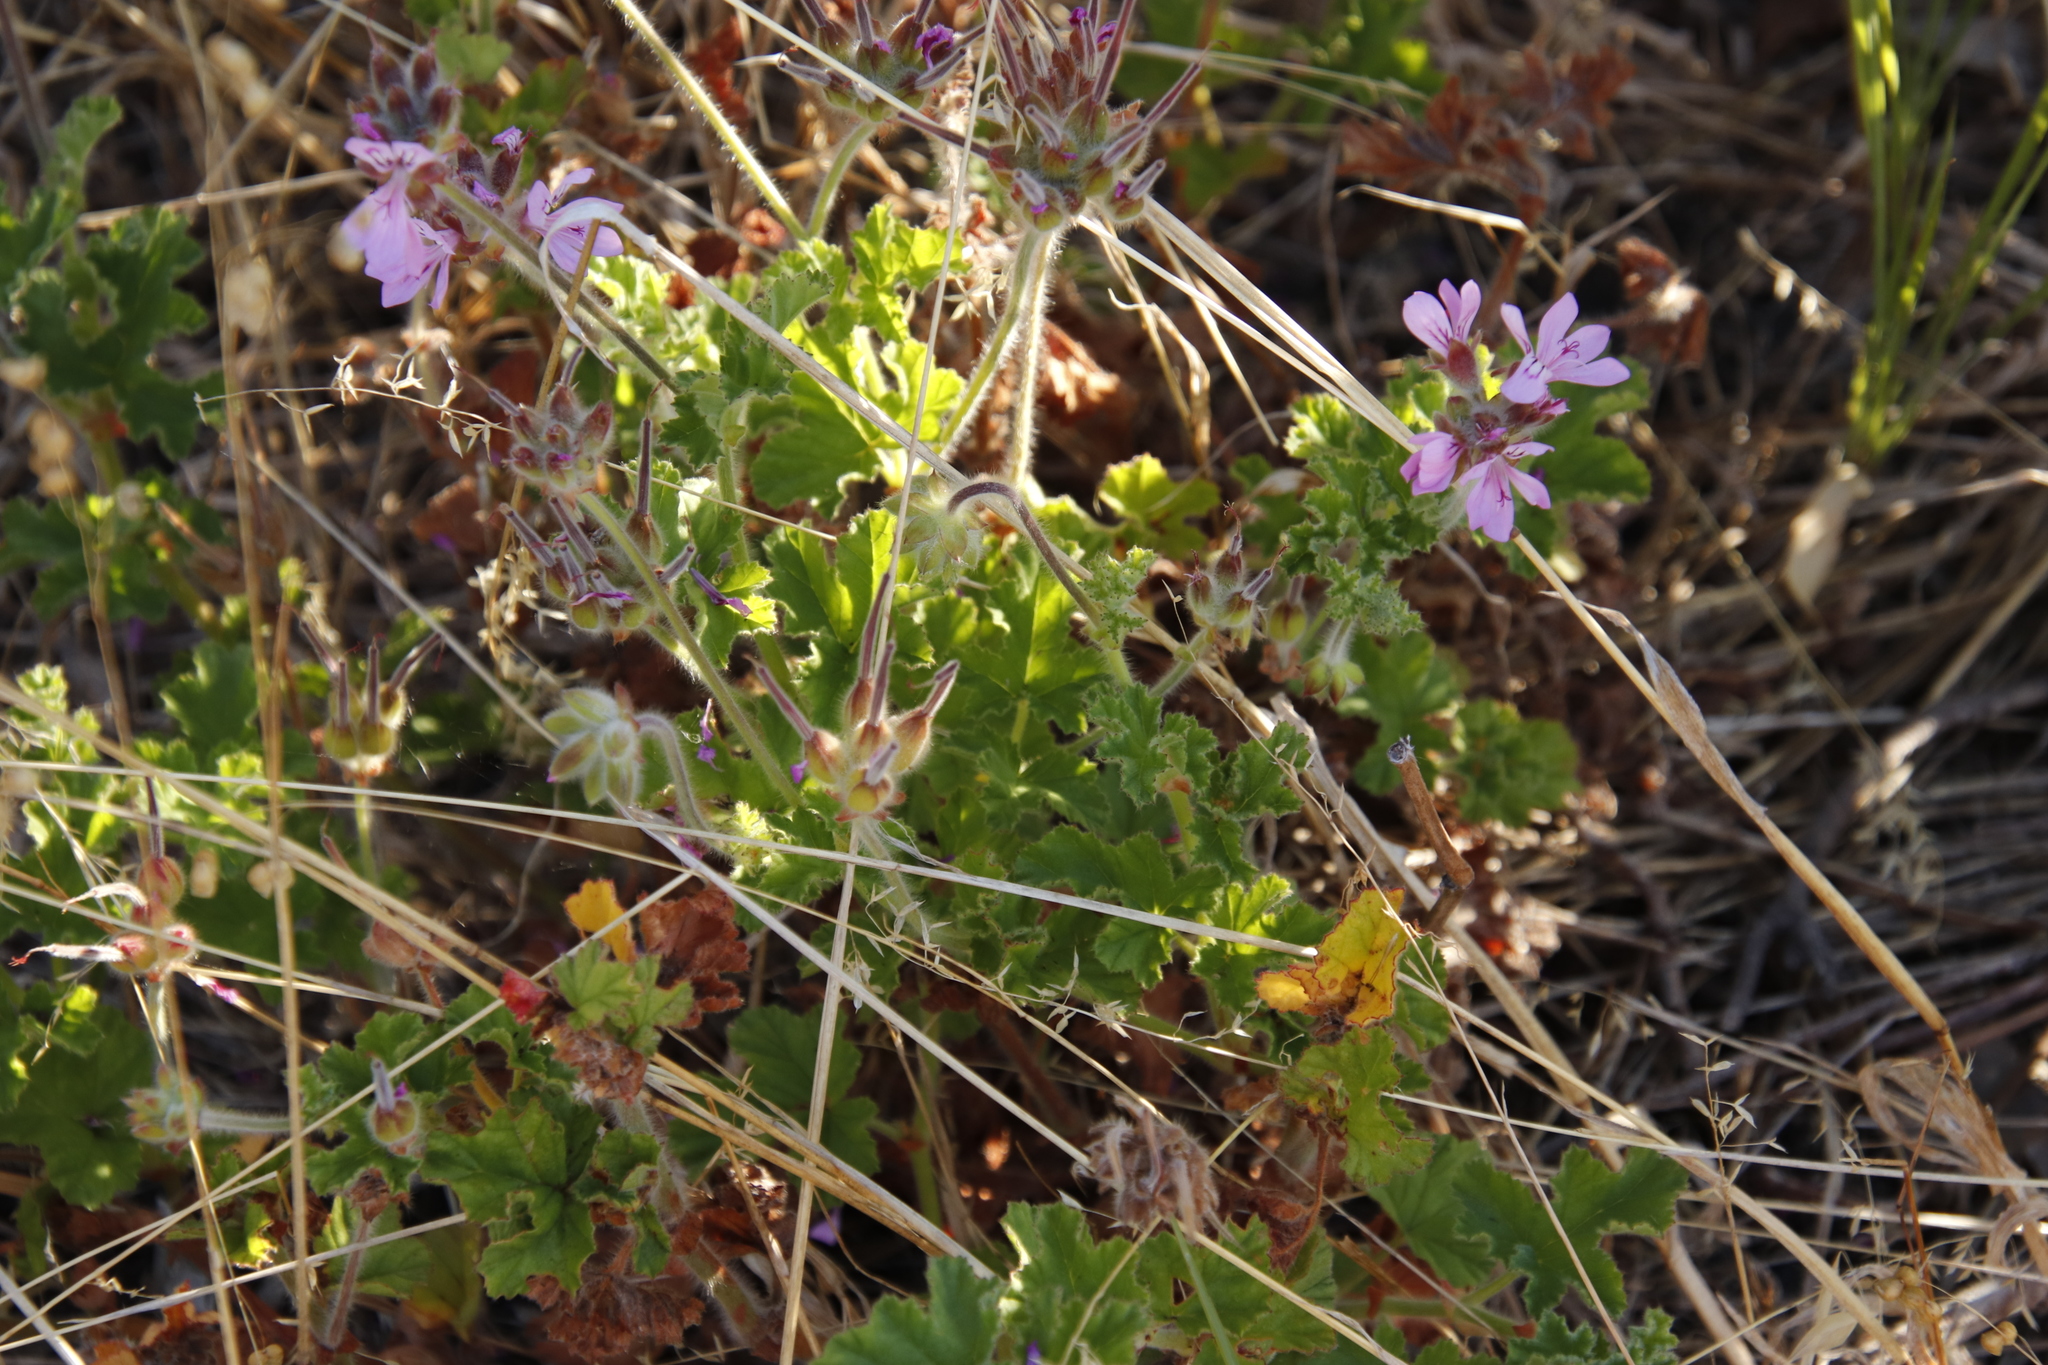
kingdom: Plantae
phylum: Tracheophyta
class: Magnoliopsida
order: Geraniales
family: Geraniaceae
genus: Pelargonium
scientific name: Pelargonium capitatum
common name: Rose scented geranium
